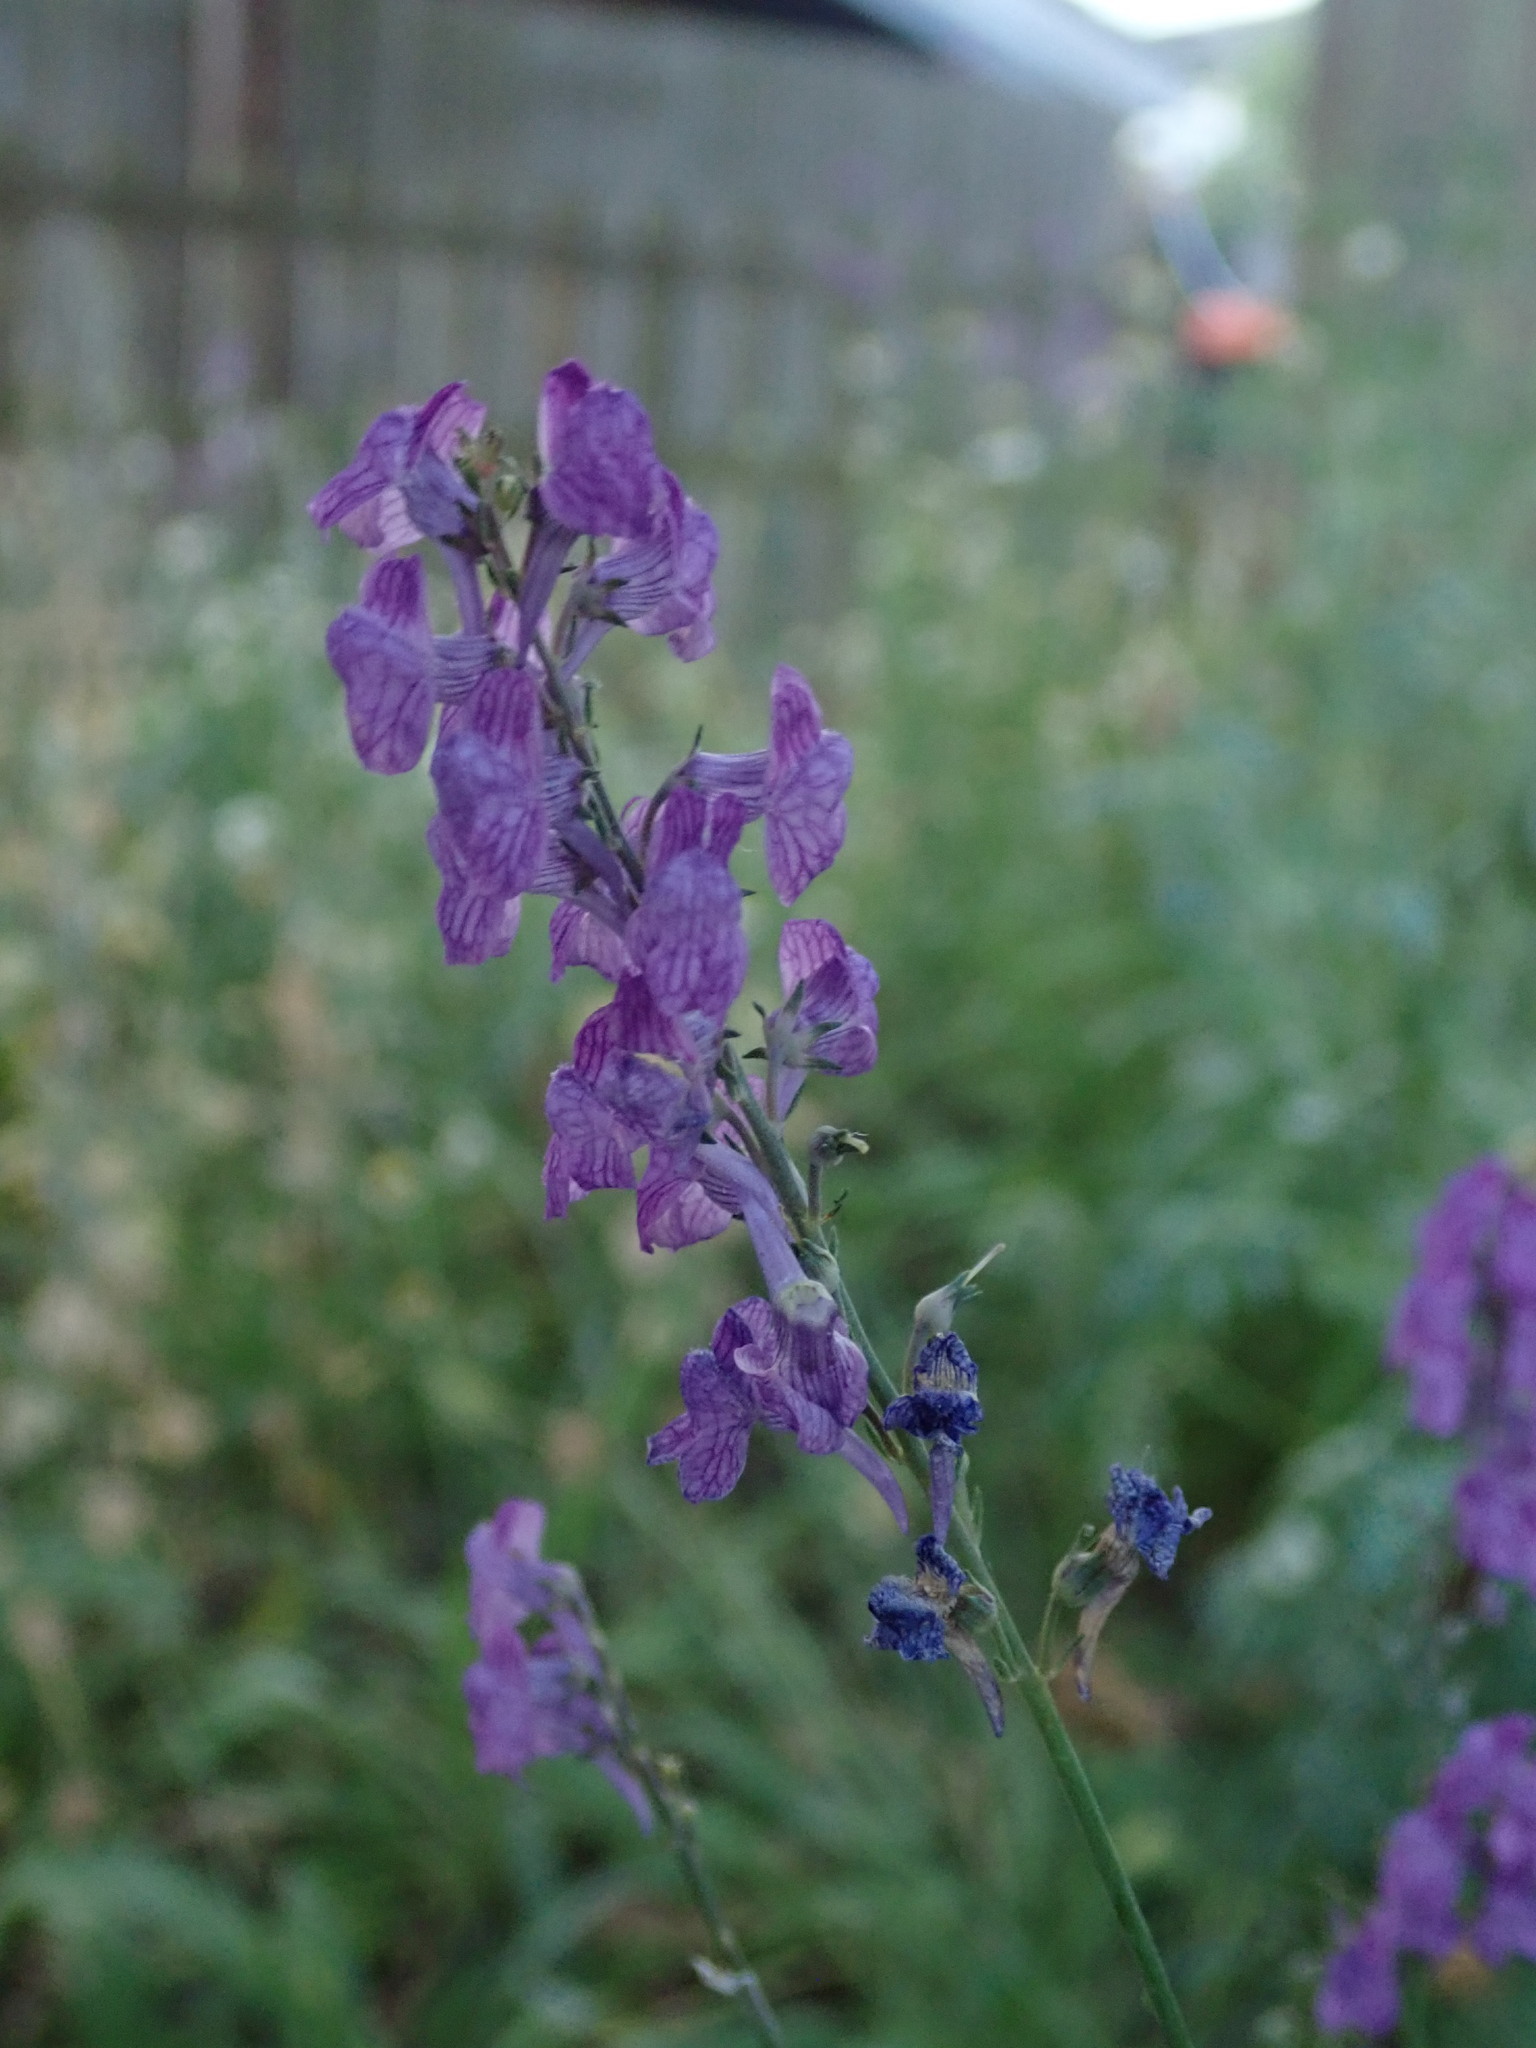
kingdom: Plantae
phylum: Tracheophyta
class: Magnoliopsida
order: Lamiales
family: Plantaginaceae
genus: Linaria
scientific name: Linaria purpurea
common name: Purple toadflax
